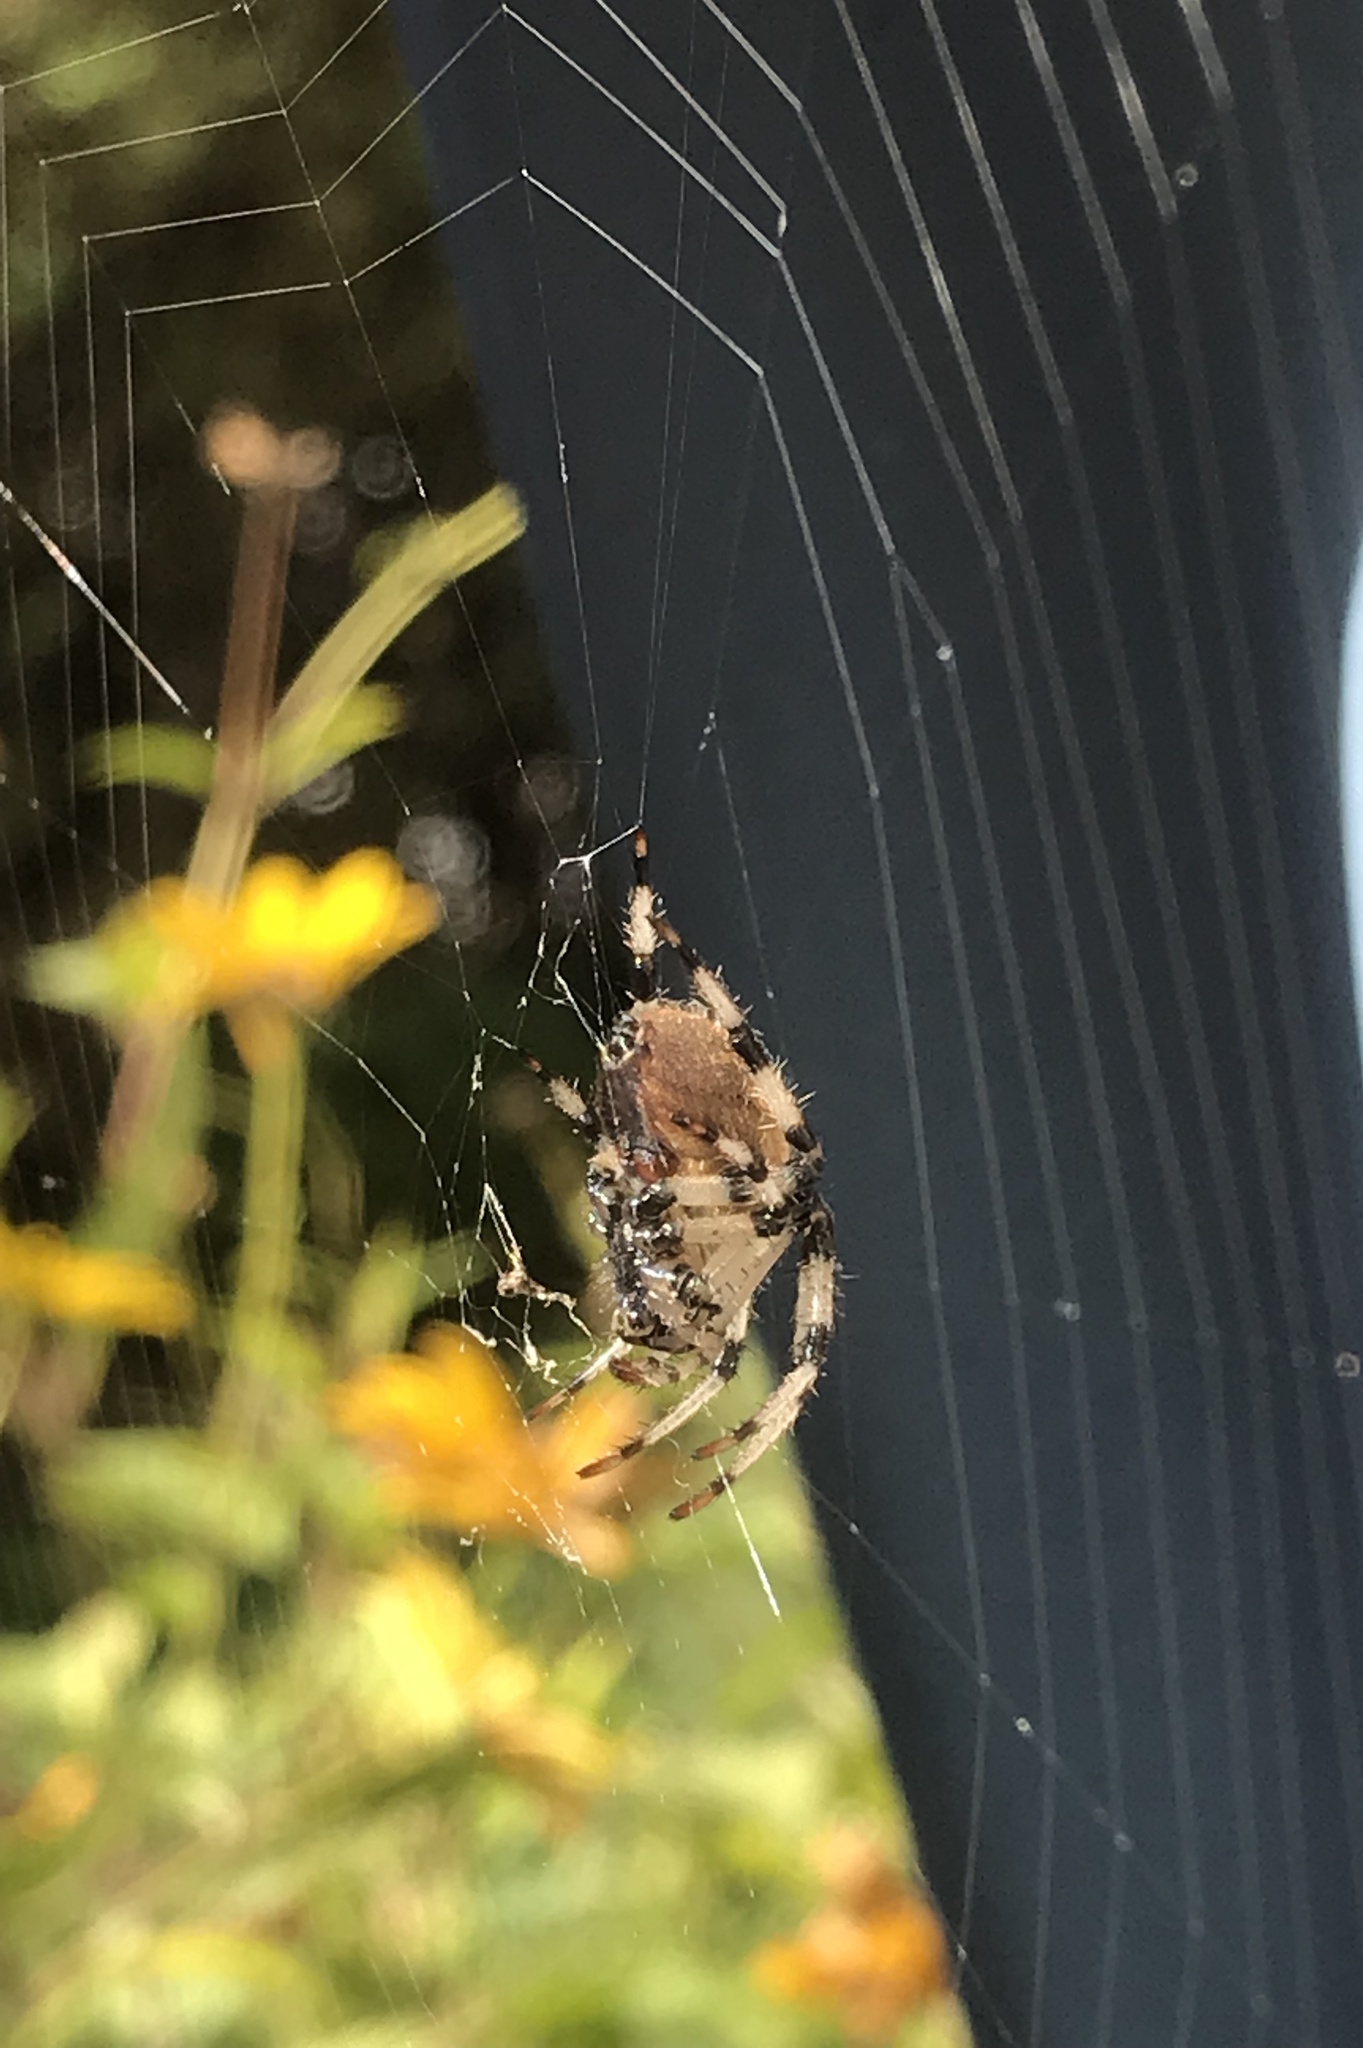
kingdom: Animalia
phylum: Arthropoda
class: Arachnida
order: Araneae
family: Araneidae
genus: Araneus
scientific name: Araneus trifolium
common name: Shamrock orbweaver
